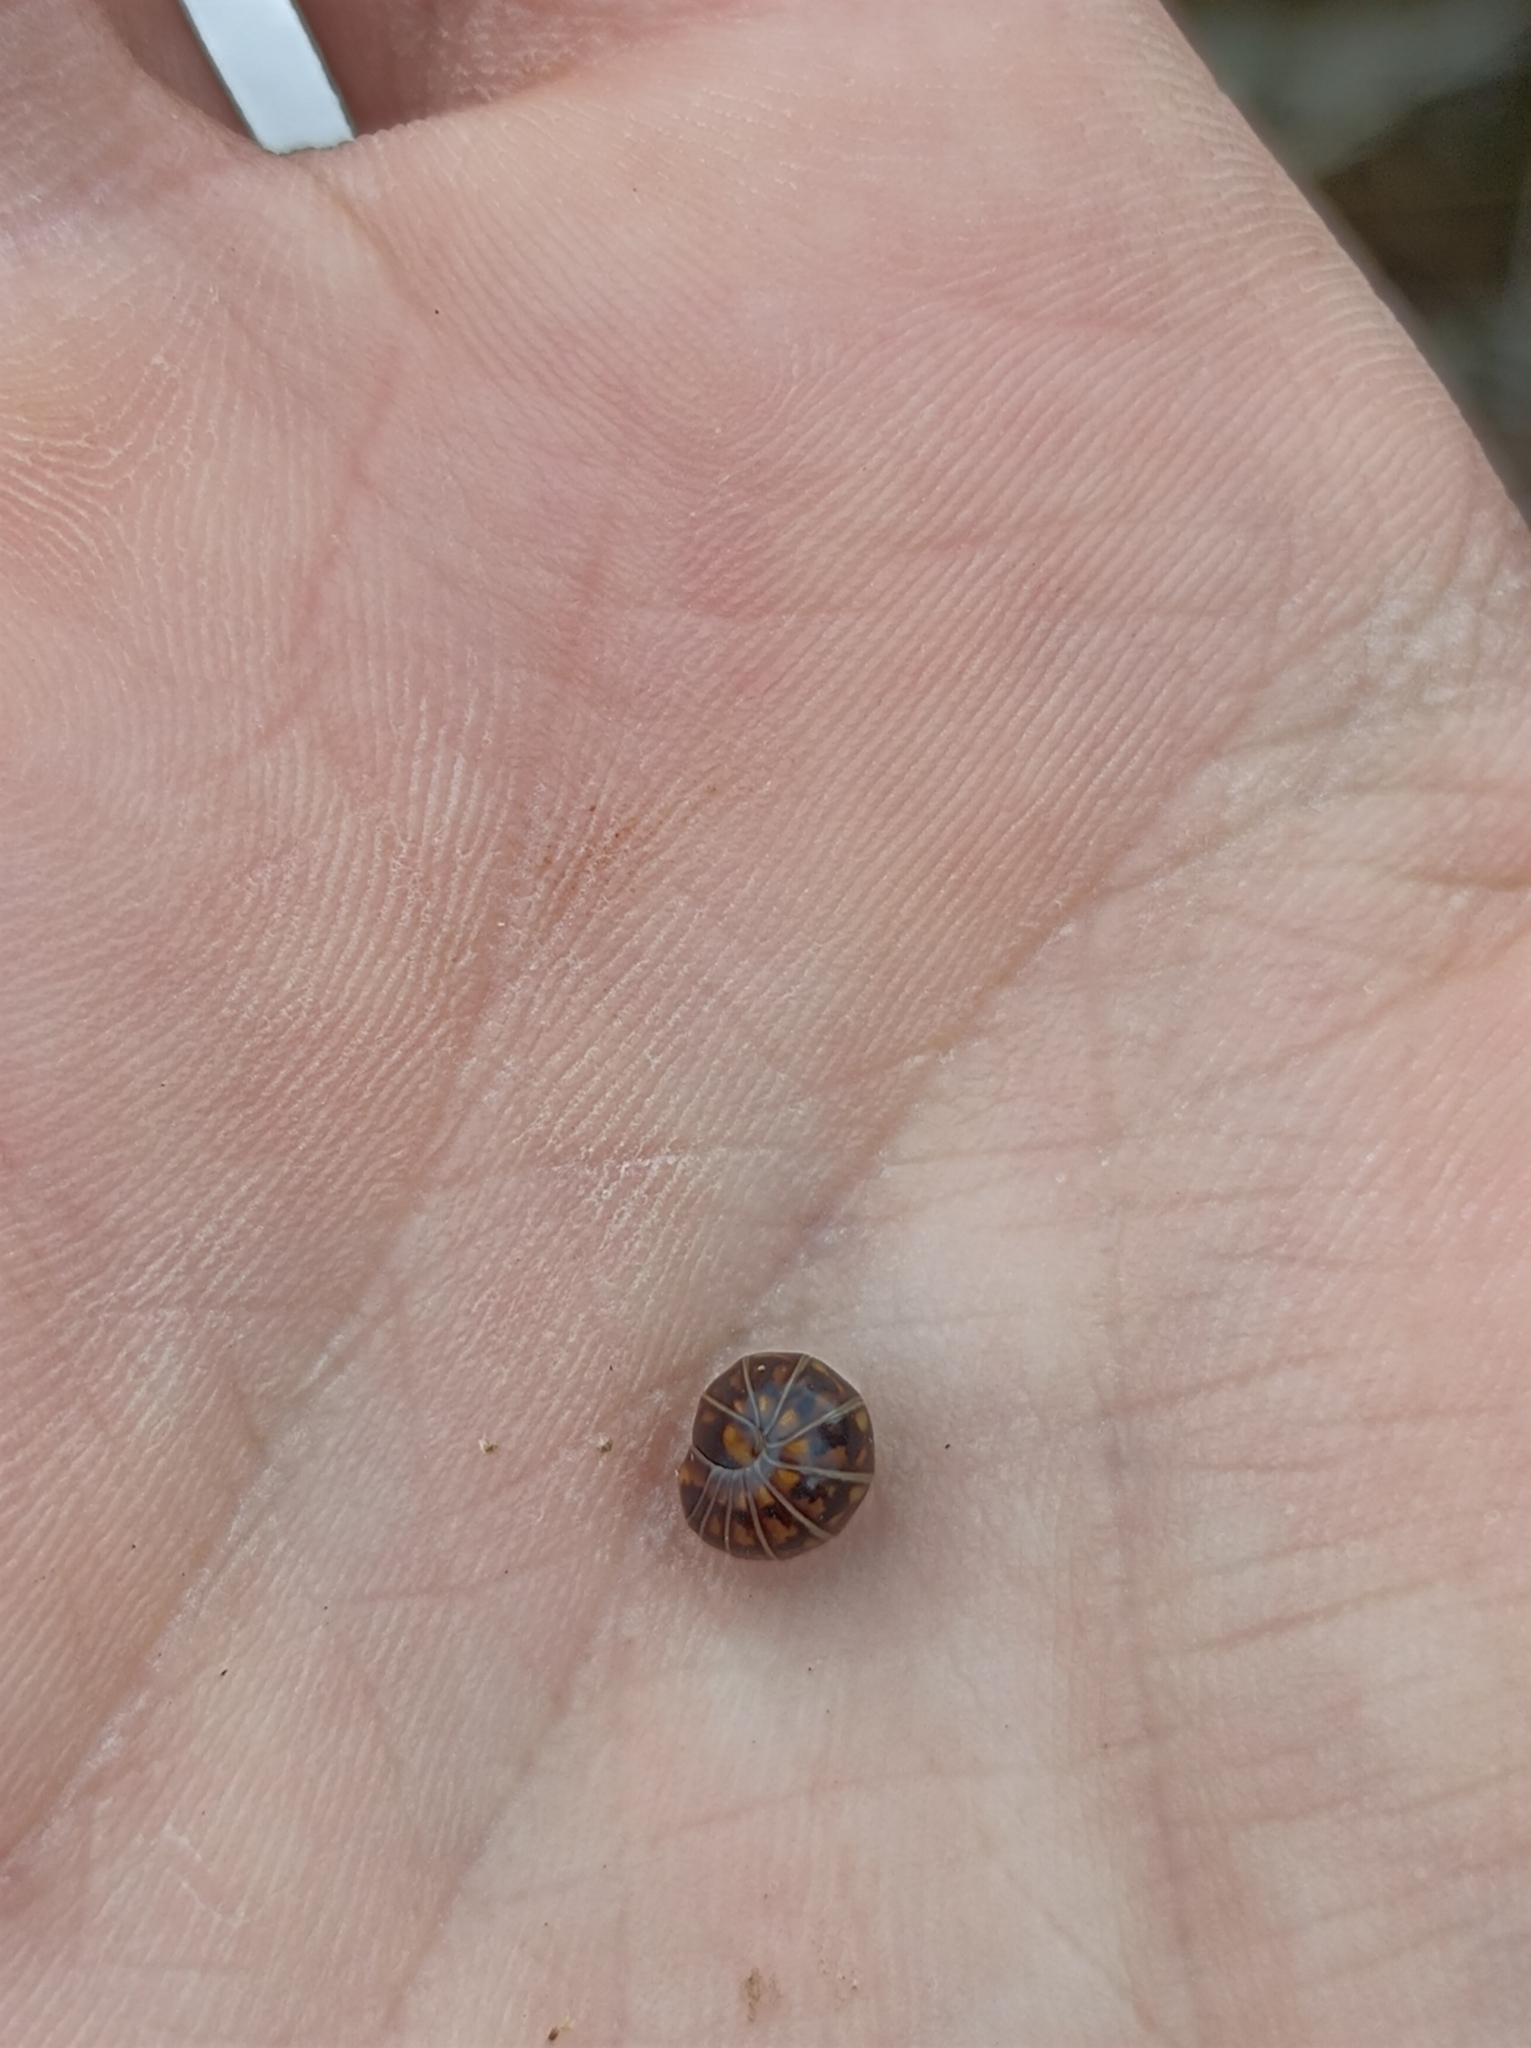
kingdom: Animalia
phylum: Arthropoda
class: Diplopoda
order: Glomerida
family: Glomeridae
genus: Glomeris
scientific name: Glomeris hexasticha
